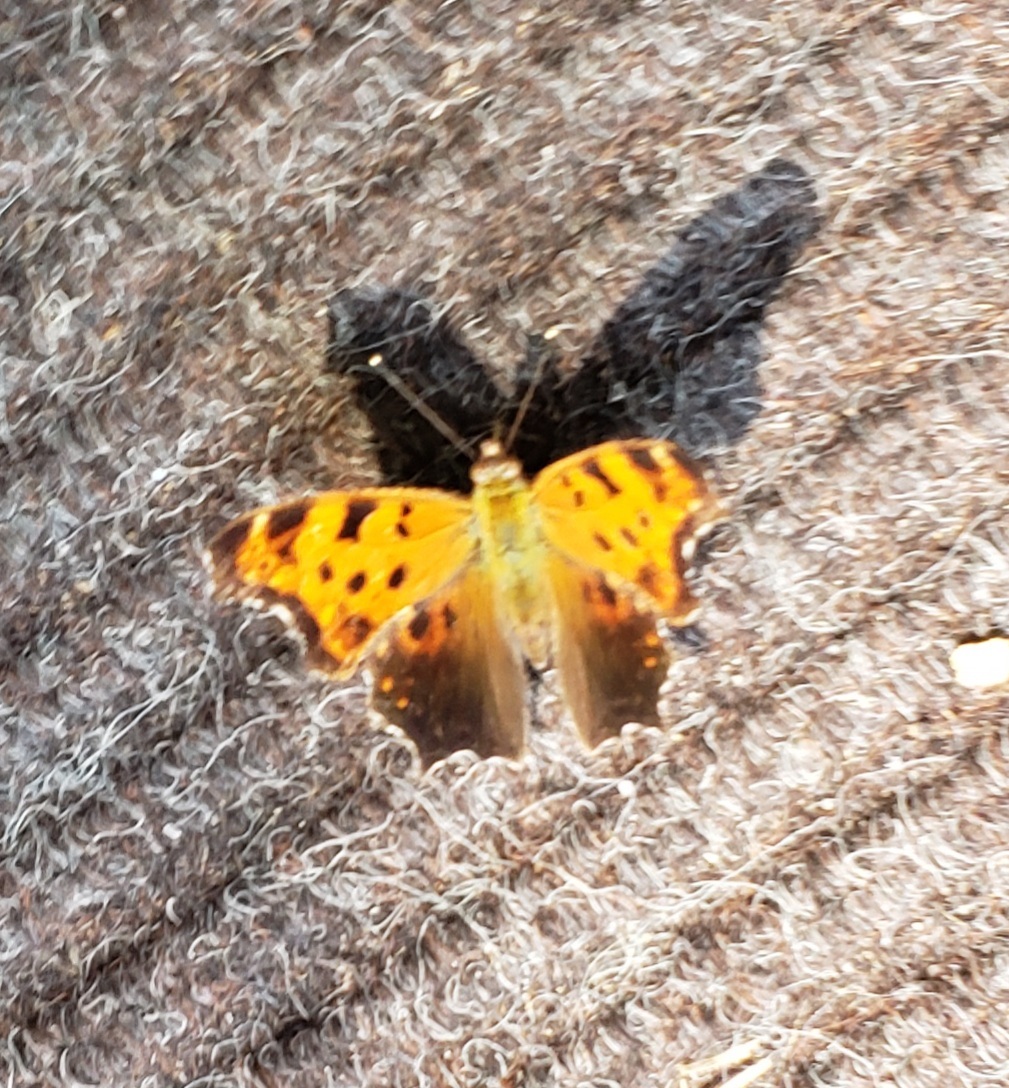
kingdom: Animalia
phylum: Arthropoda
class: Insecta
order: Lepidoptera
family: Nymphalidae
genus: Polygonia
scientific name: Polygonia comma
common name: Eastern comma
